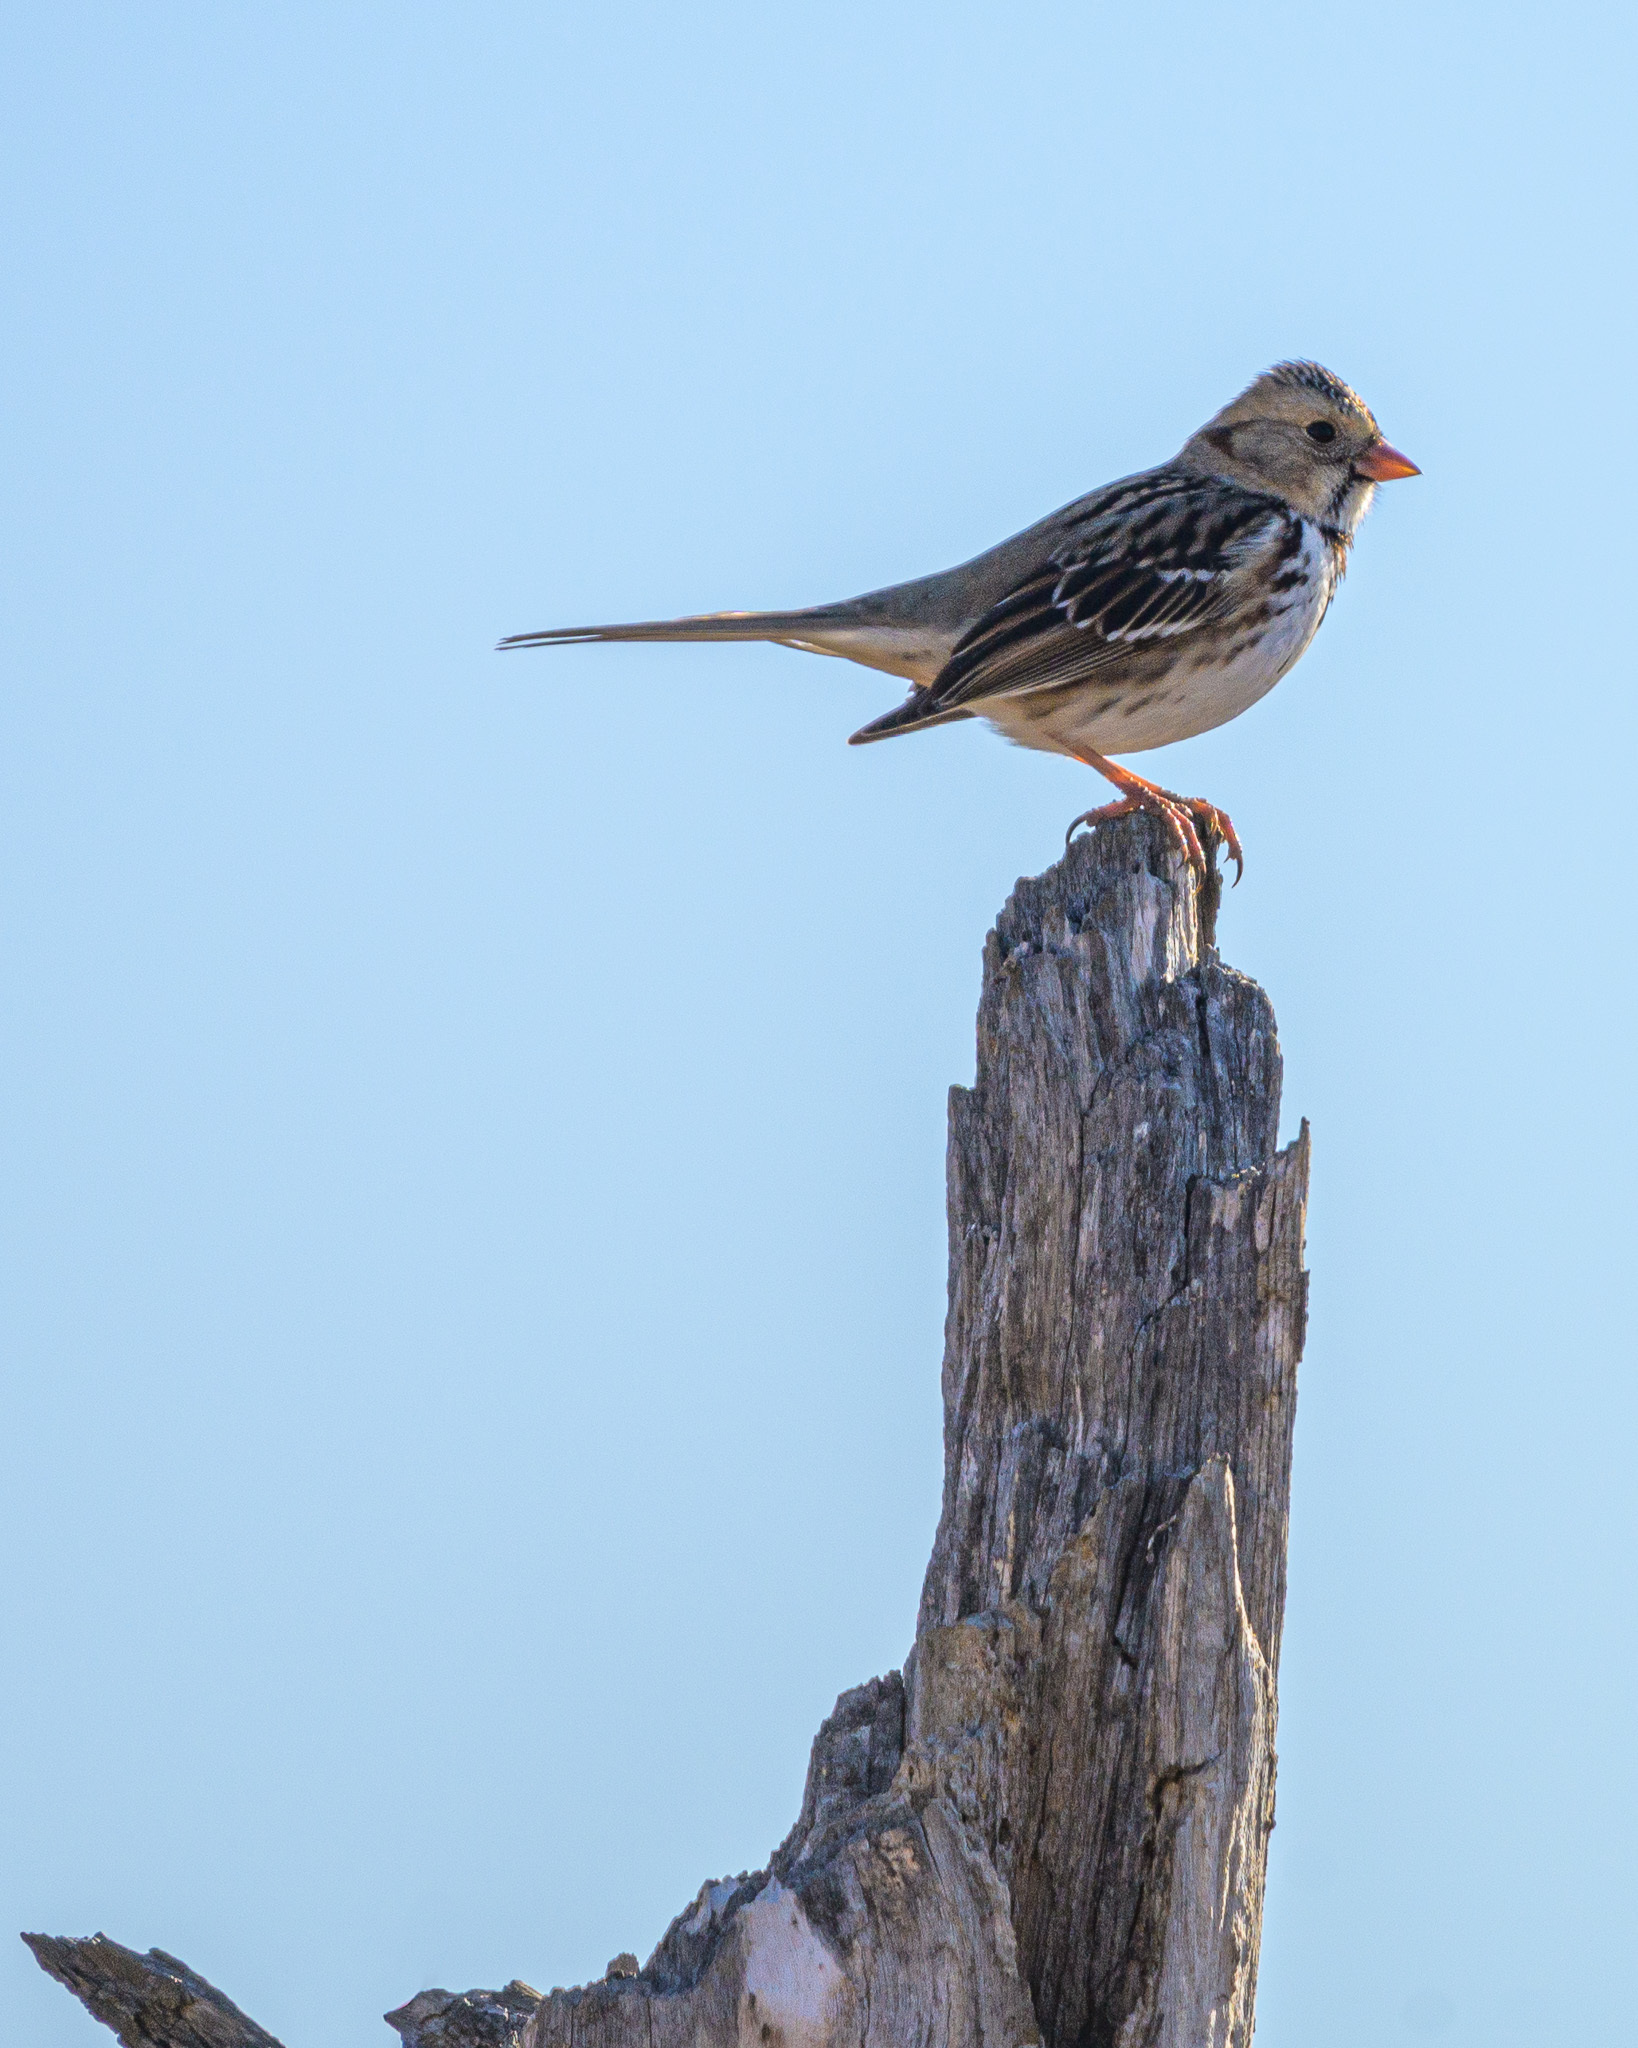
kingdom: Animalia
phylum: Chordata
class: Aves
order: Passeriformes
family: Passerellidae
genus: Zonotrichia
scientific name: Zonotrichia querula
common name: Harris's sparrow
